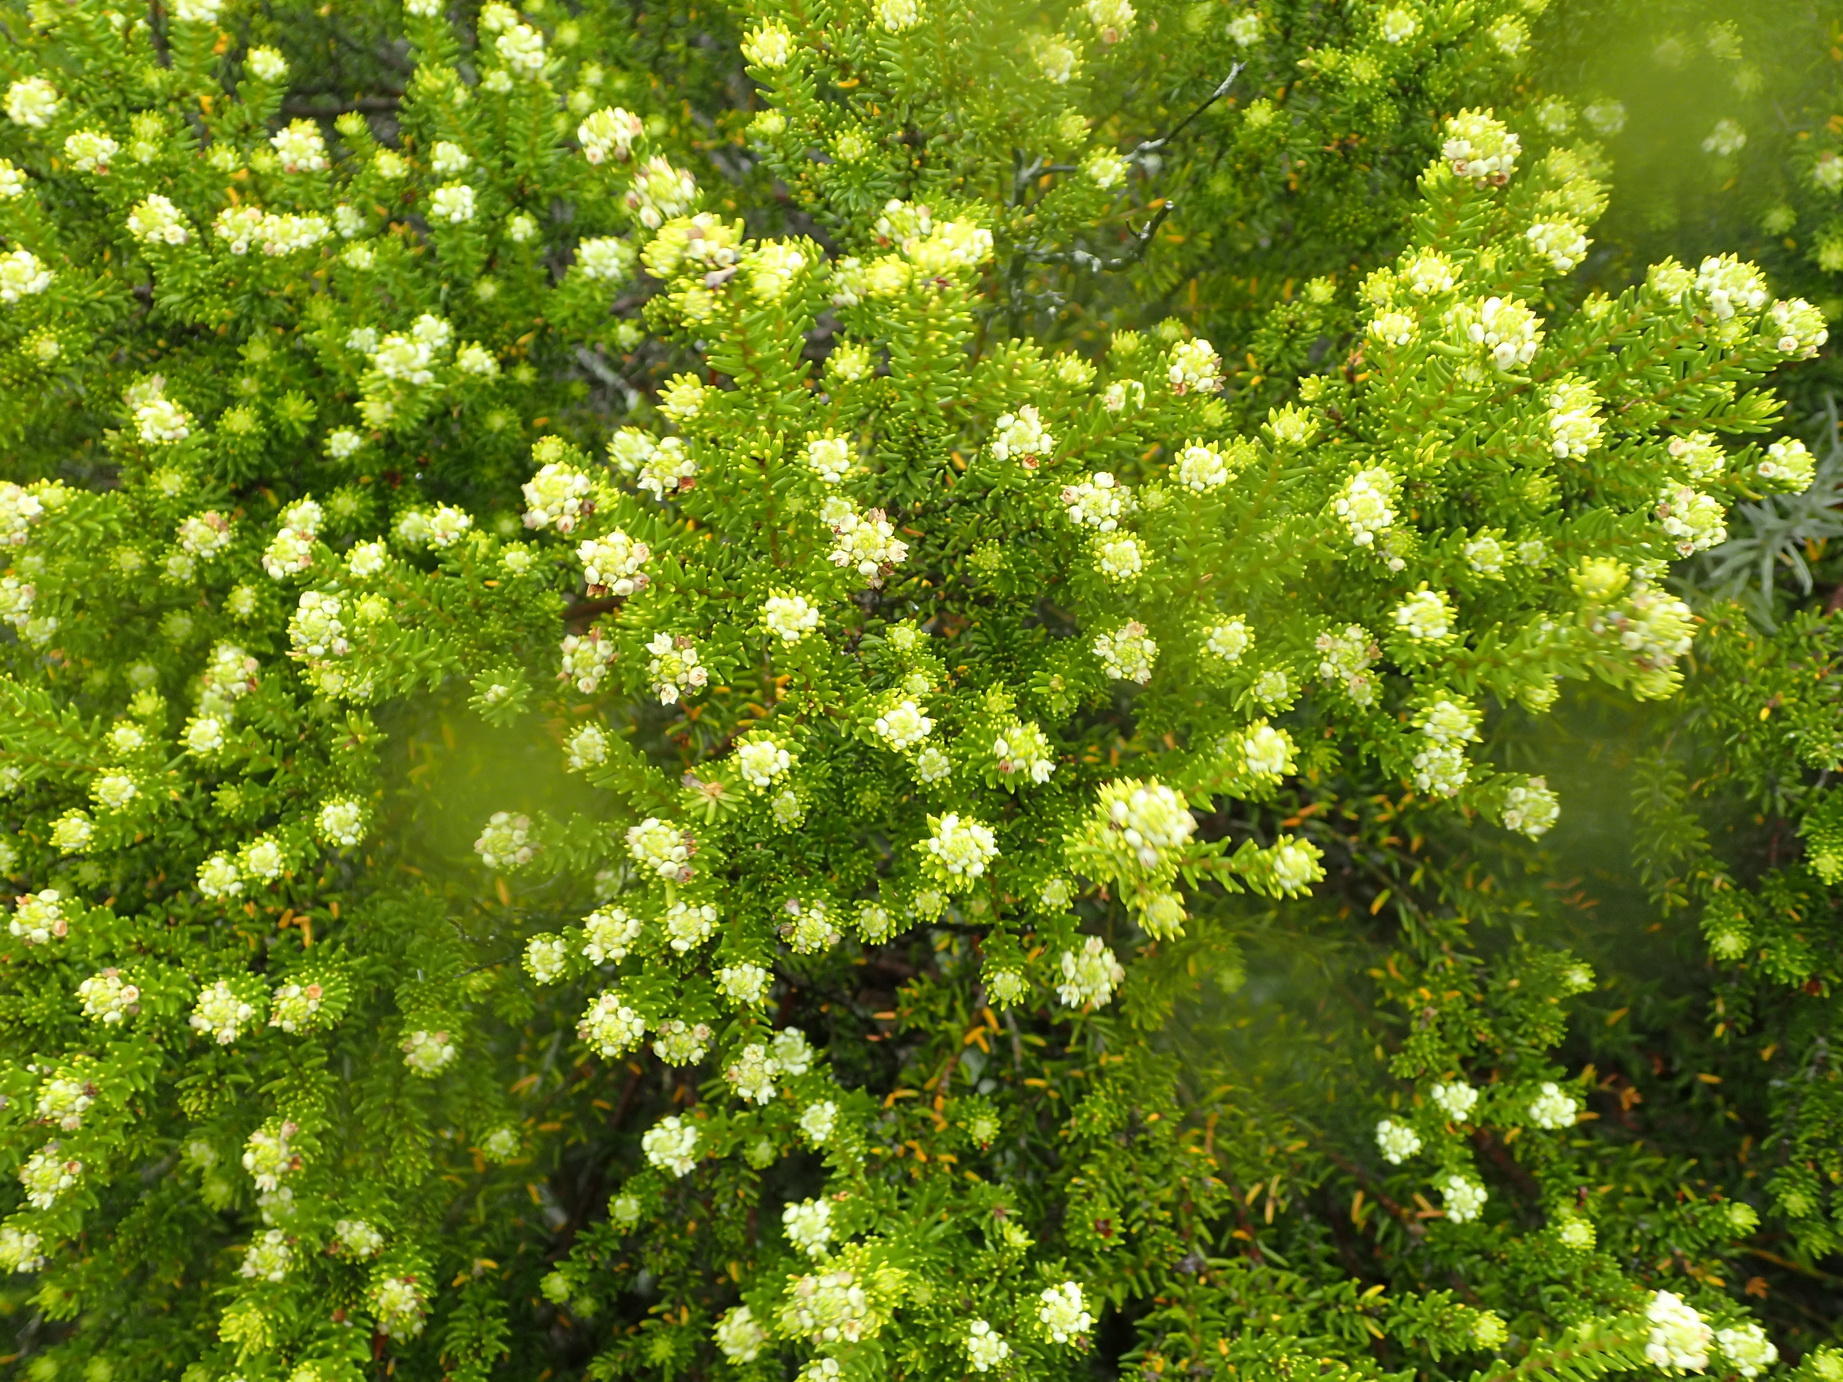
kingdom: Plantae
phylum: Tracheophyta
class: Magnoliopsida
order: Rosales
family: Rhamnaceae
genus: Phylica
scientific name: Phylica axillaris
